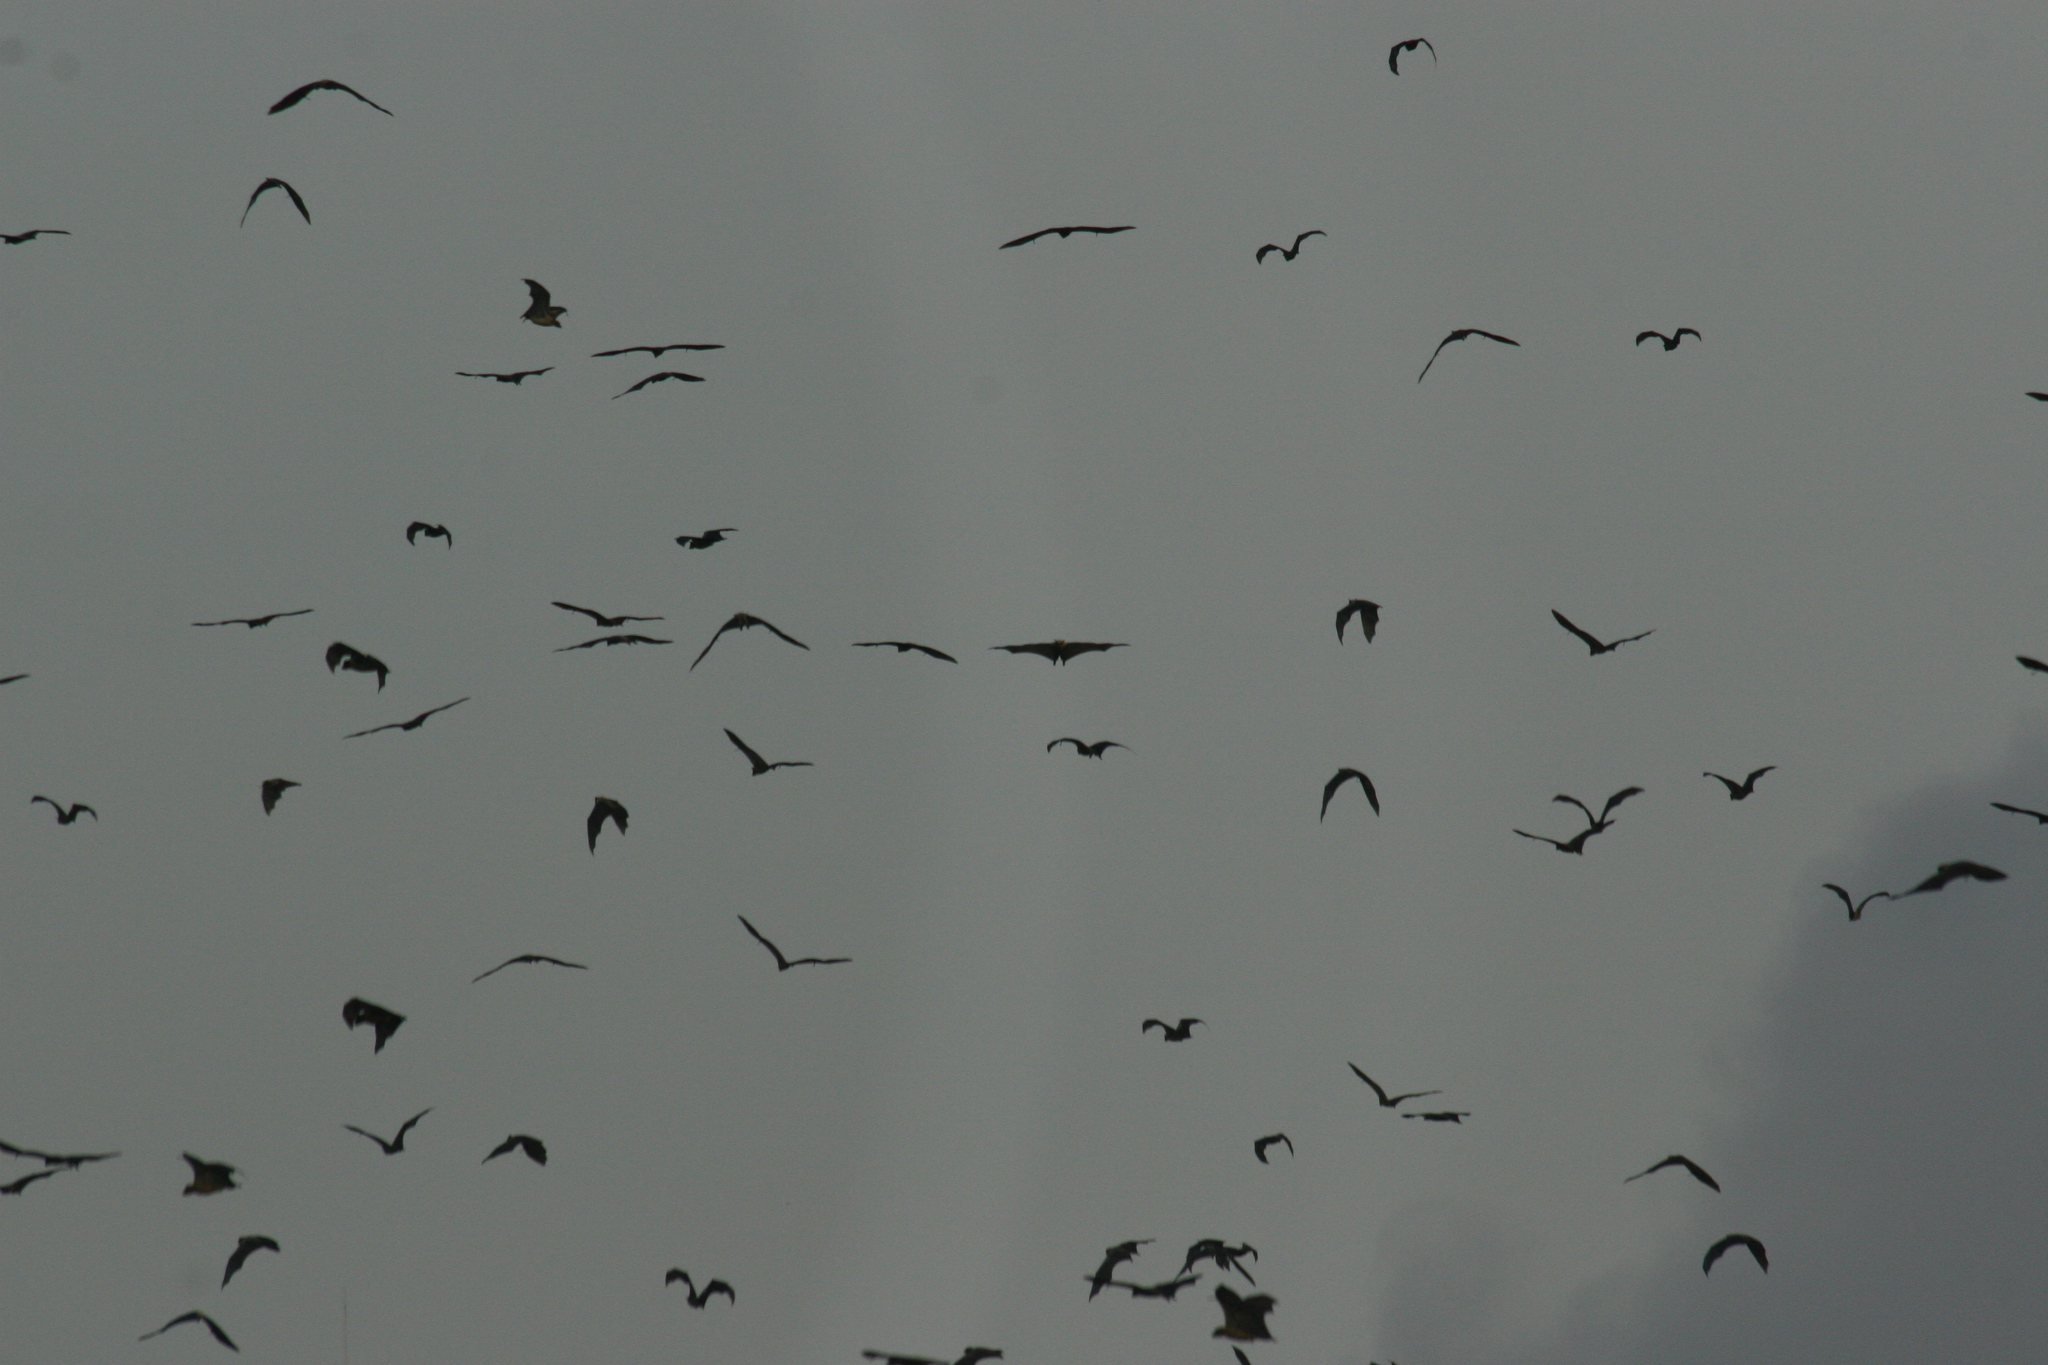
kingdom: Animalia
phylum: Chordata
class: Mammalia
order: Chiroptera
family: Pteropodidae
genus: Eidolon
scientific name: Eidolon helvum
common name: Straw-colored fruit bat
